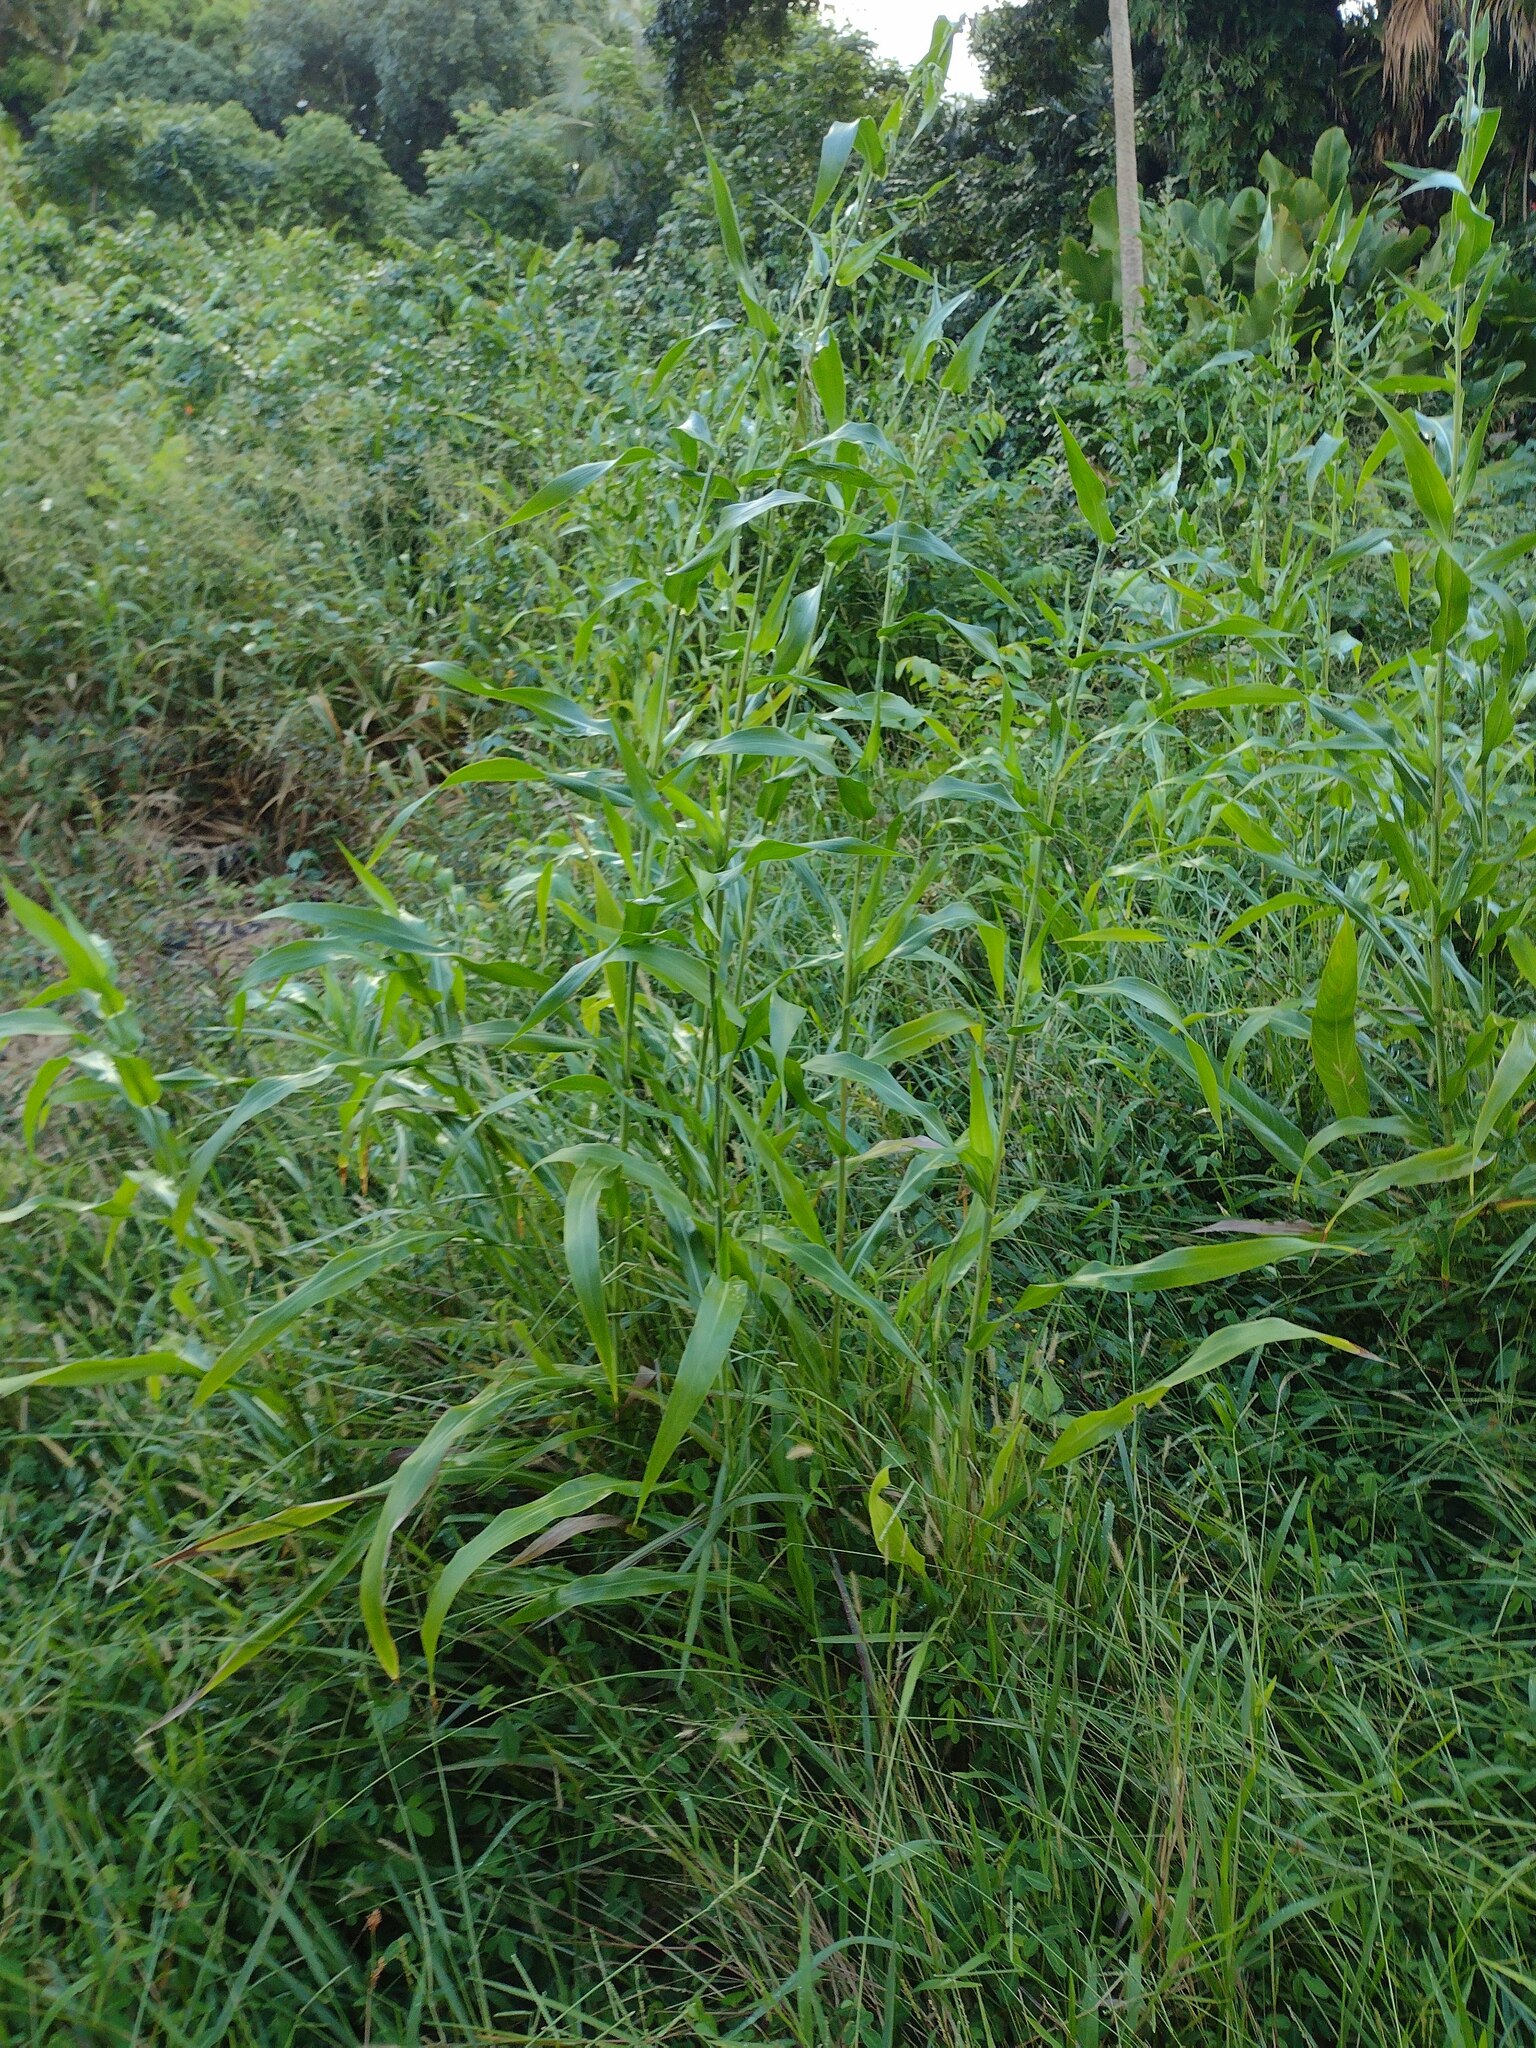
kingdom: Plantae
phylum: Tracheophyta
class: Liliopsida
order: Poales
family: Poaceae
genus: Coix
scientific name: Coix lacryma-jobi
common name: Job's tears
